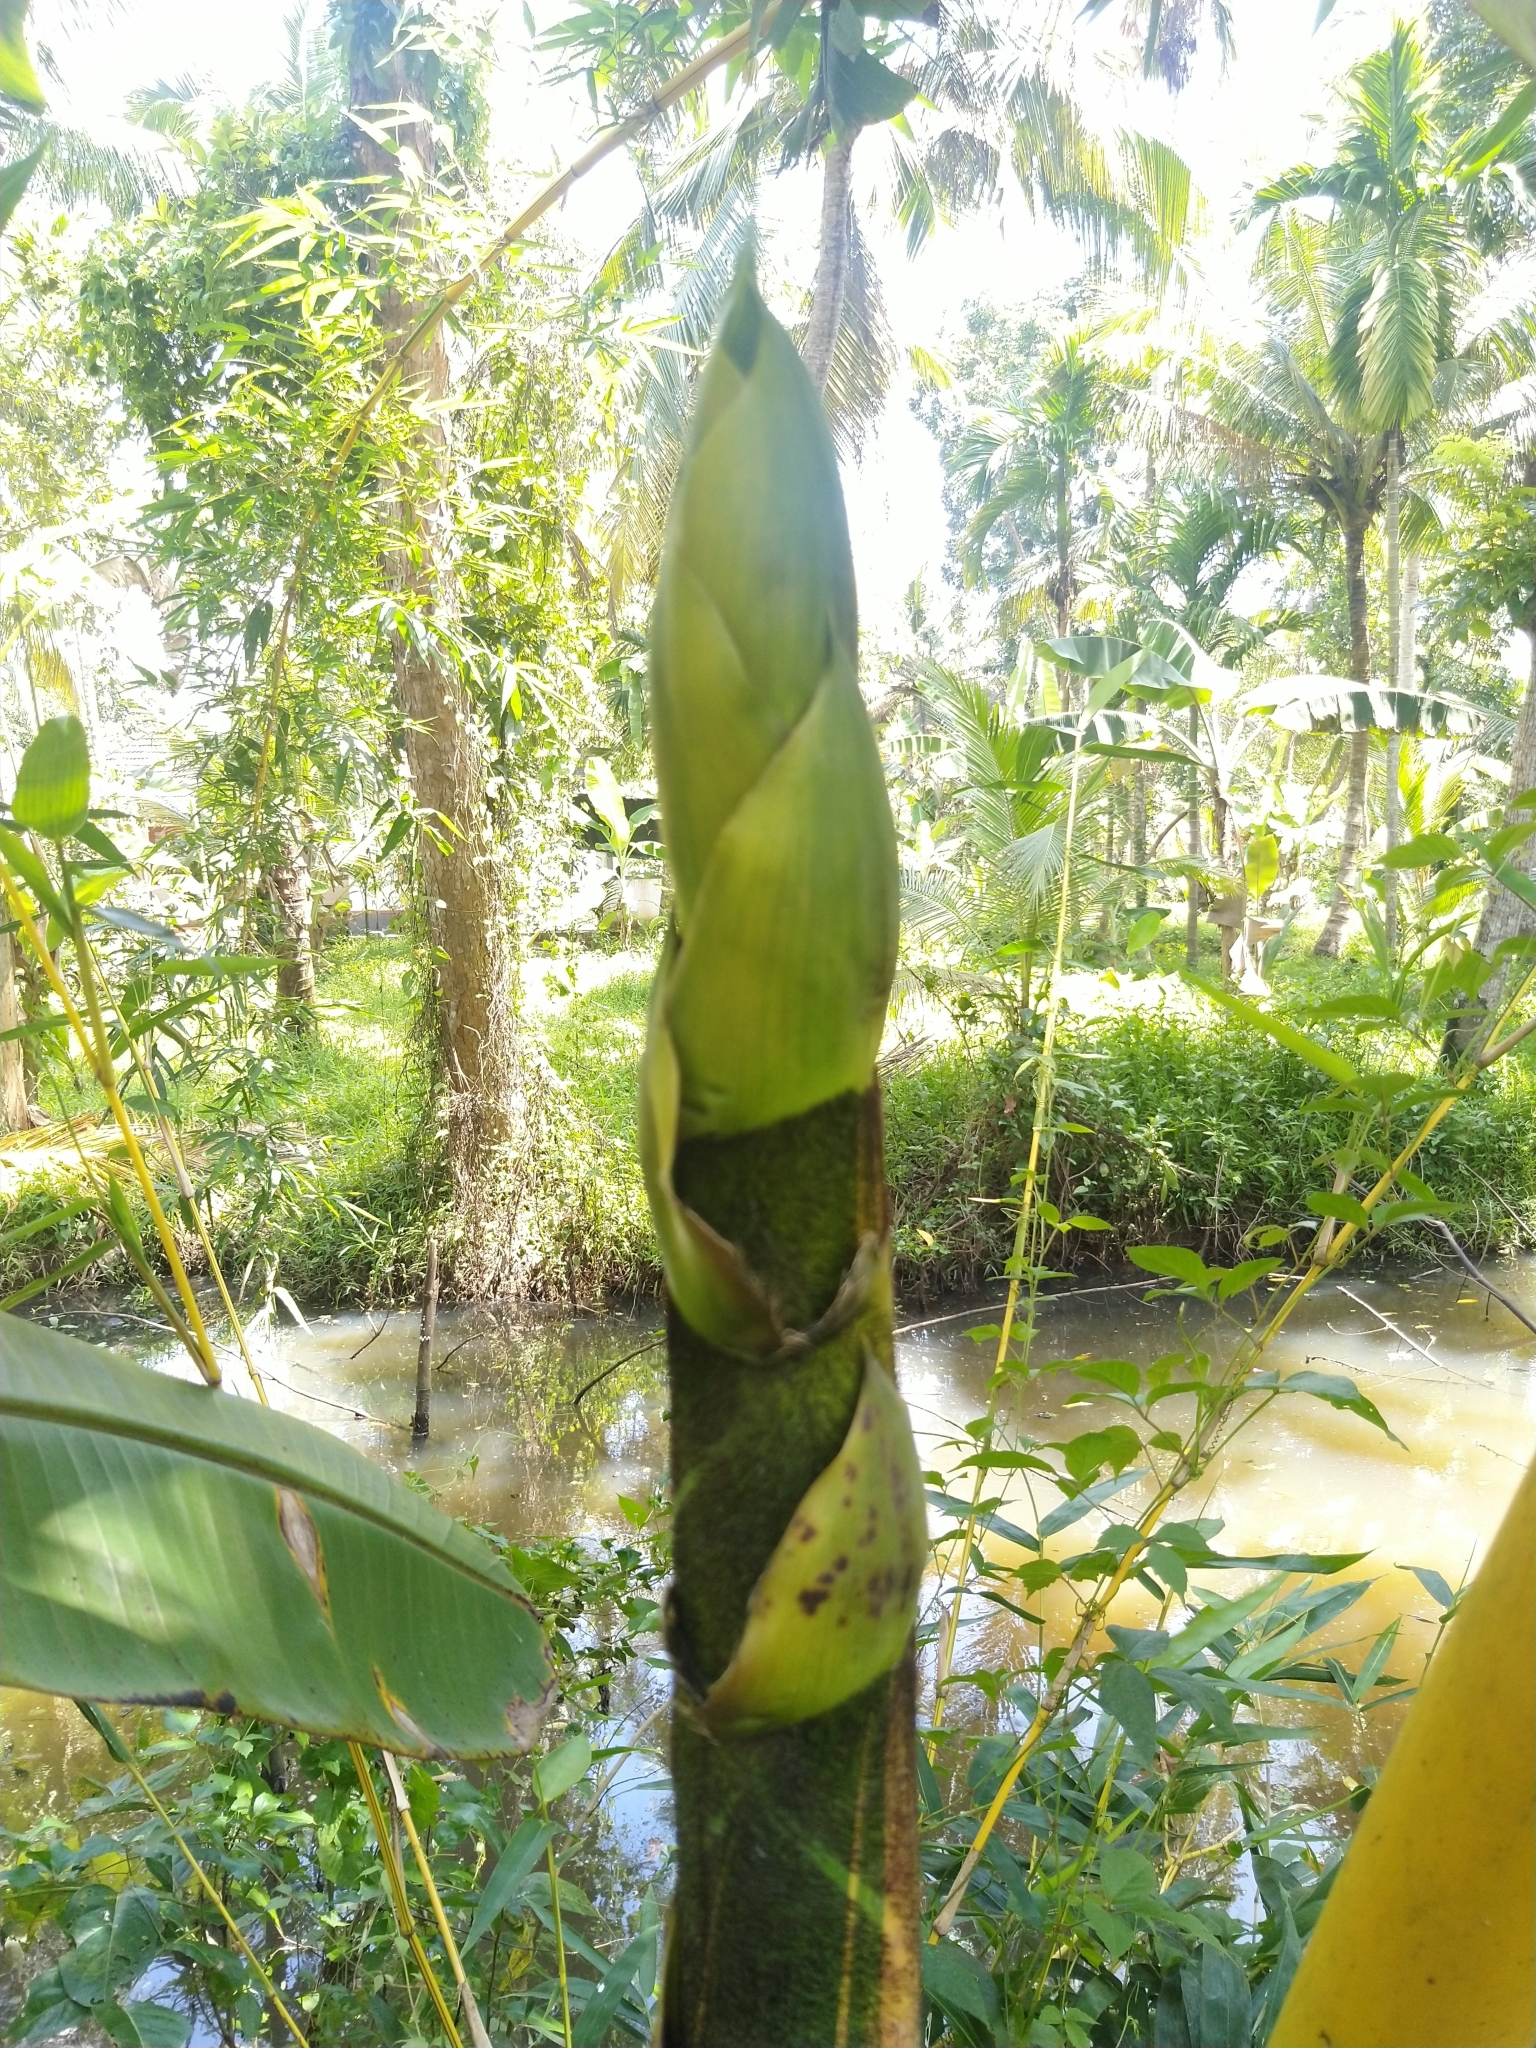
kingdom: Plantae
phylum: Tracheophyta
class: Liliopsida
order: Poales
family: Poaceae
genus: Bambusa
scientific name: Bambusa vulgaris
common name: Common bamboo
